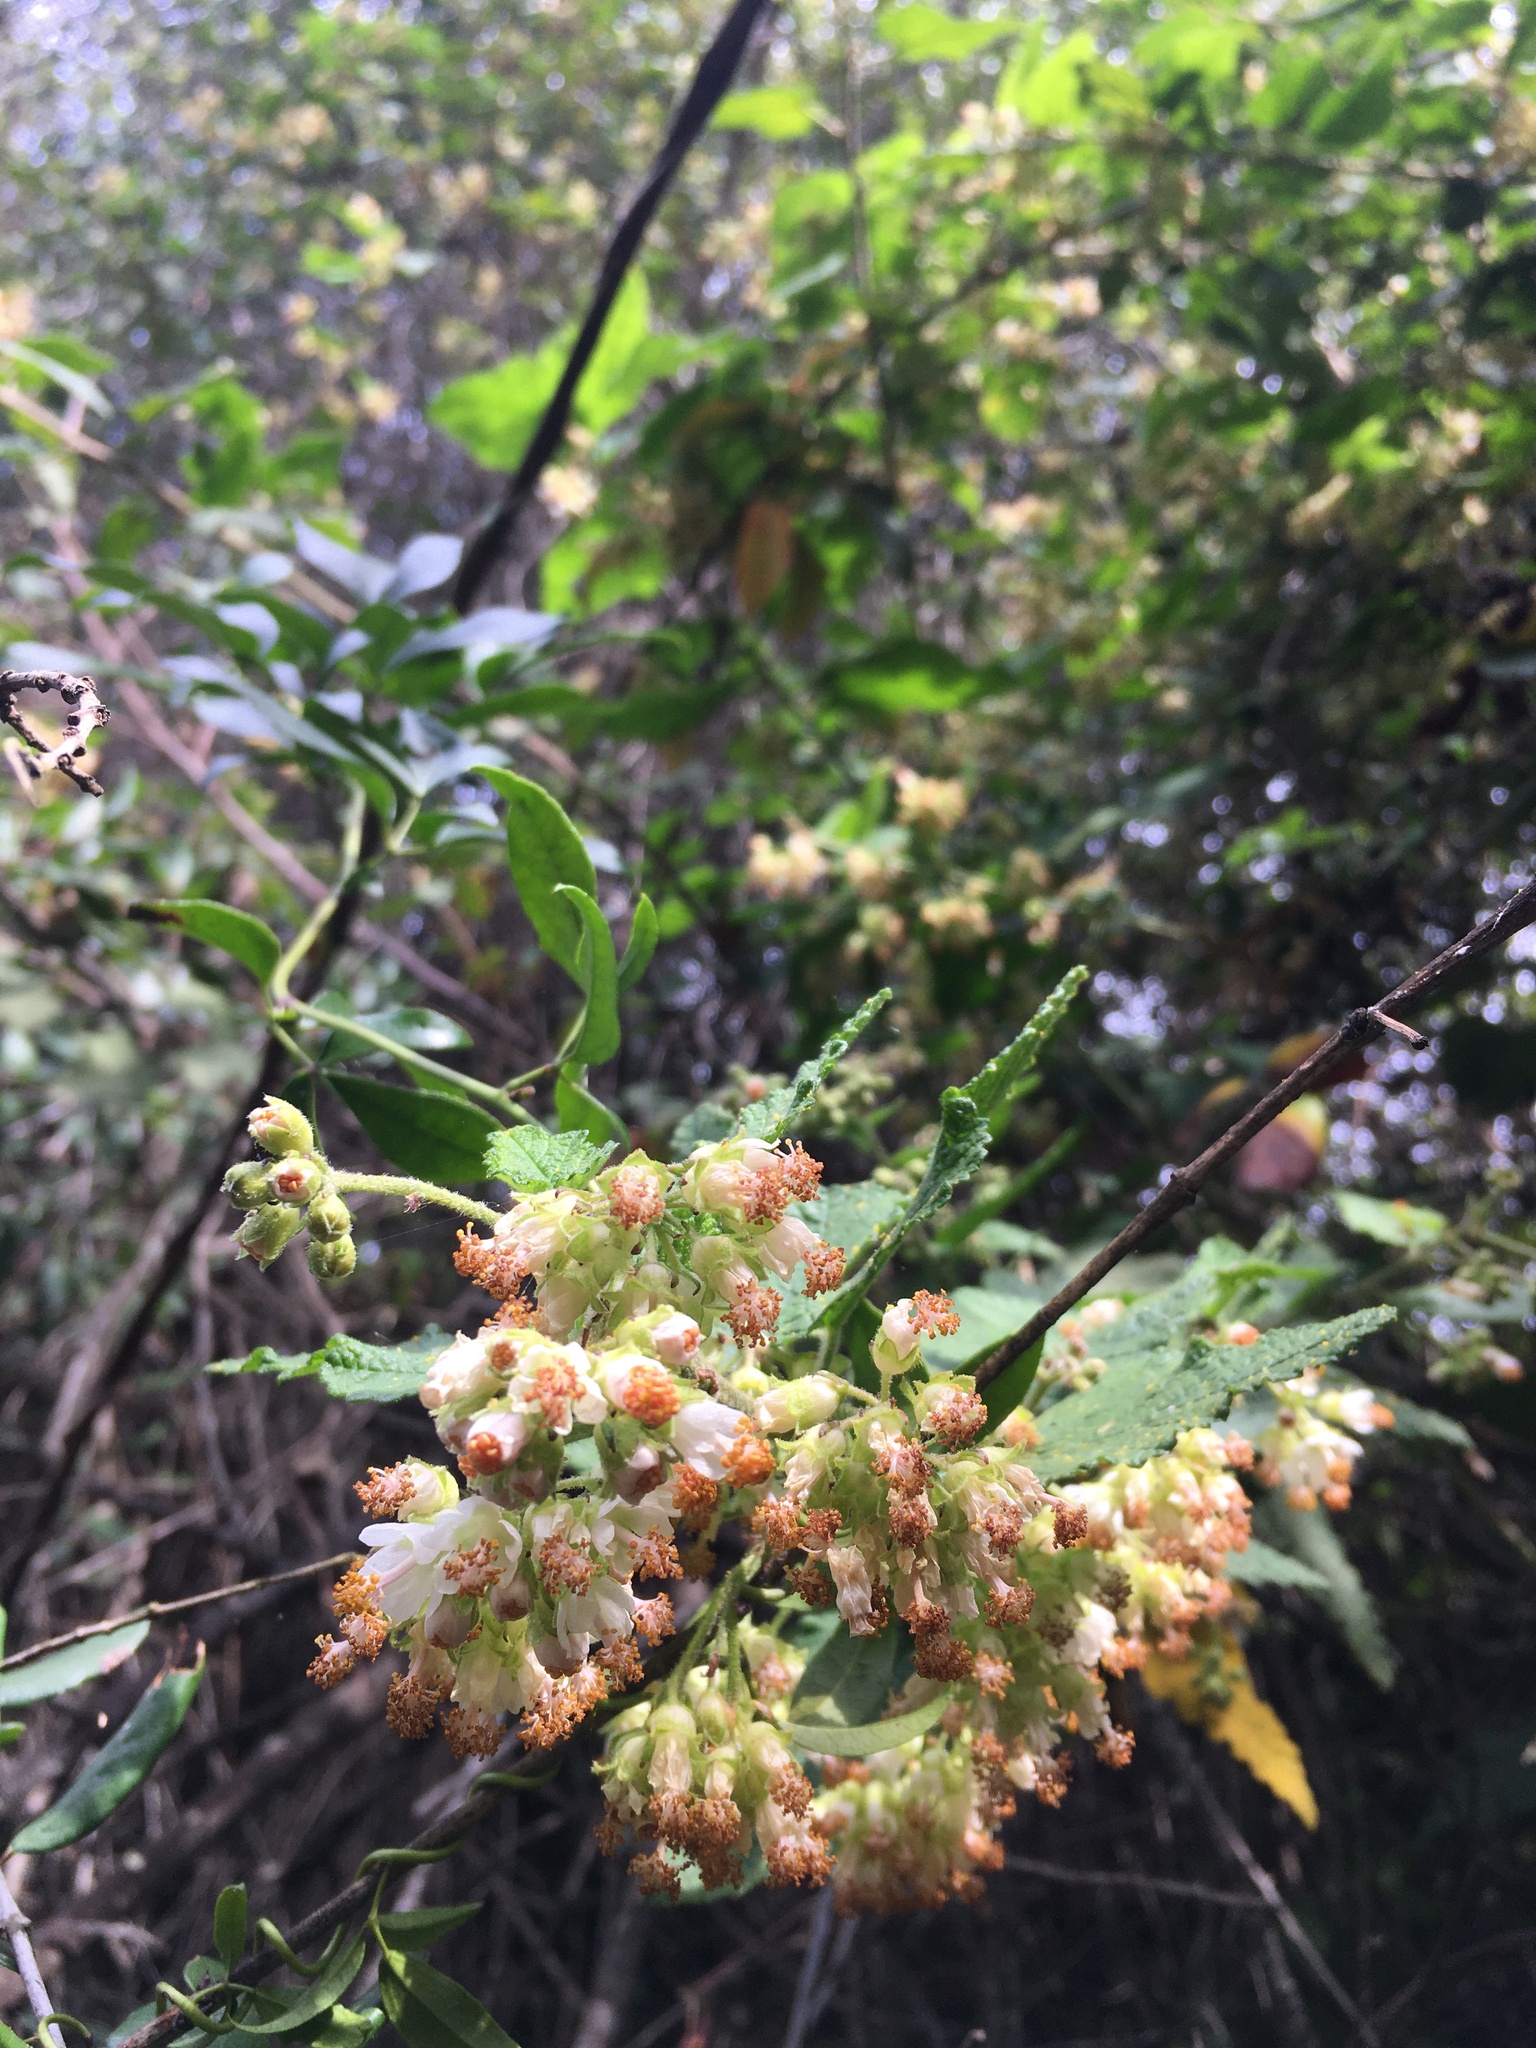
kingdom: Plantae
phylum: Tracheophyta
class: Magnoliopsida
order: Malvales
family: Malvaceae
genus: Tarasa
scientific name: Tarasa umbellata
